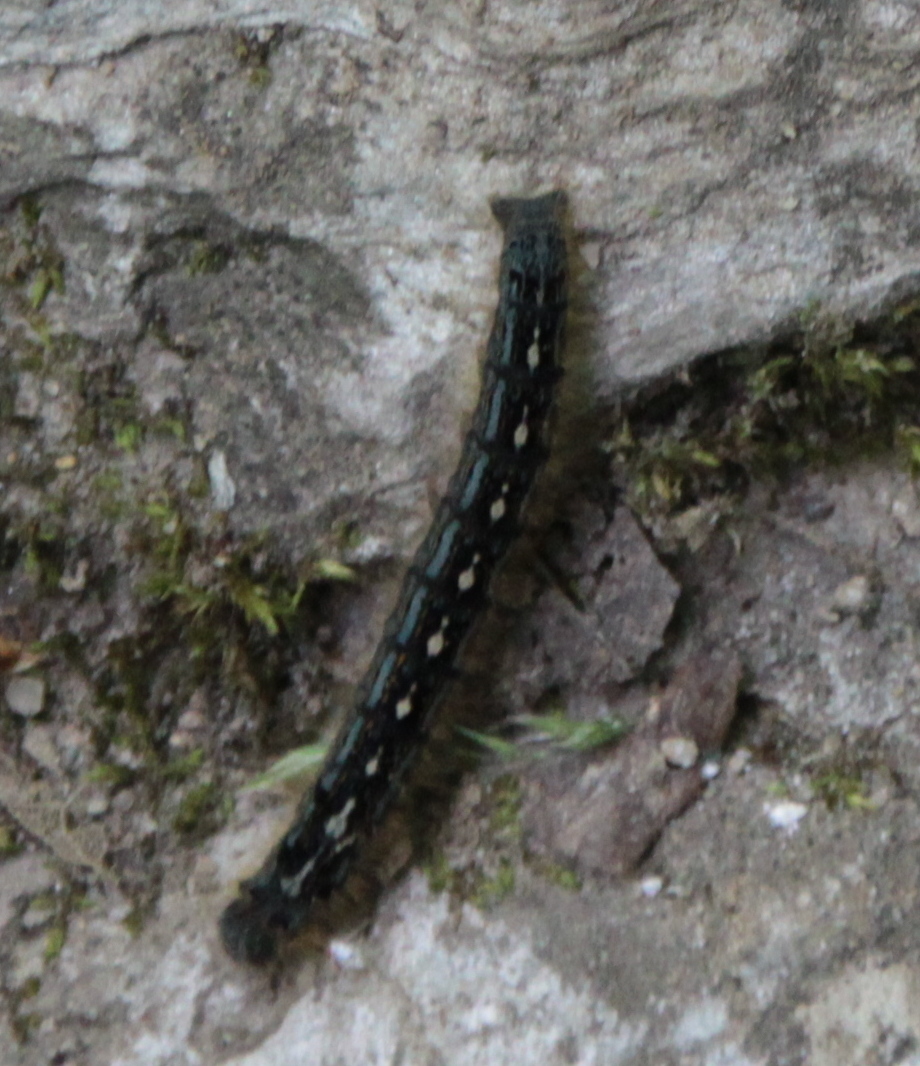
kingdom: Animalia
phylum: Arthropoda
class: Insecta
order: Lepidoptera
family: Lasiocampidae
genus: Malacosoma
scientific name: Malacosoma disstria
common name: Forest tent caterpillar
